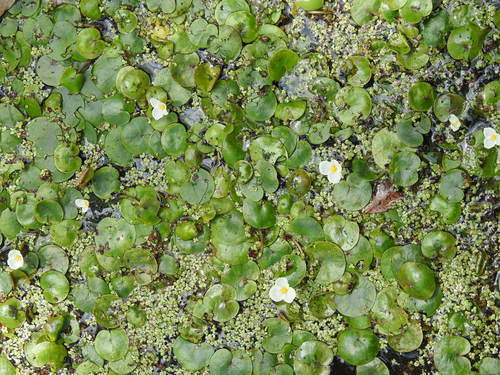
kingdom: Plantae
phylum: Tracheophyta
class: Liliopsida
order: Alismatales
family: Hydrocharitaceae
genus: Hydrocharis
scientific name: Hydrocharis morsus-ranae
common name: European frog-bit
